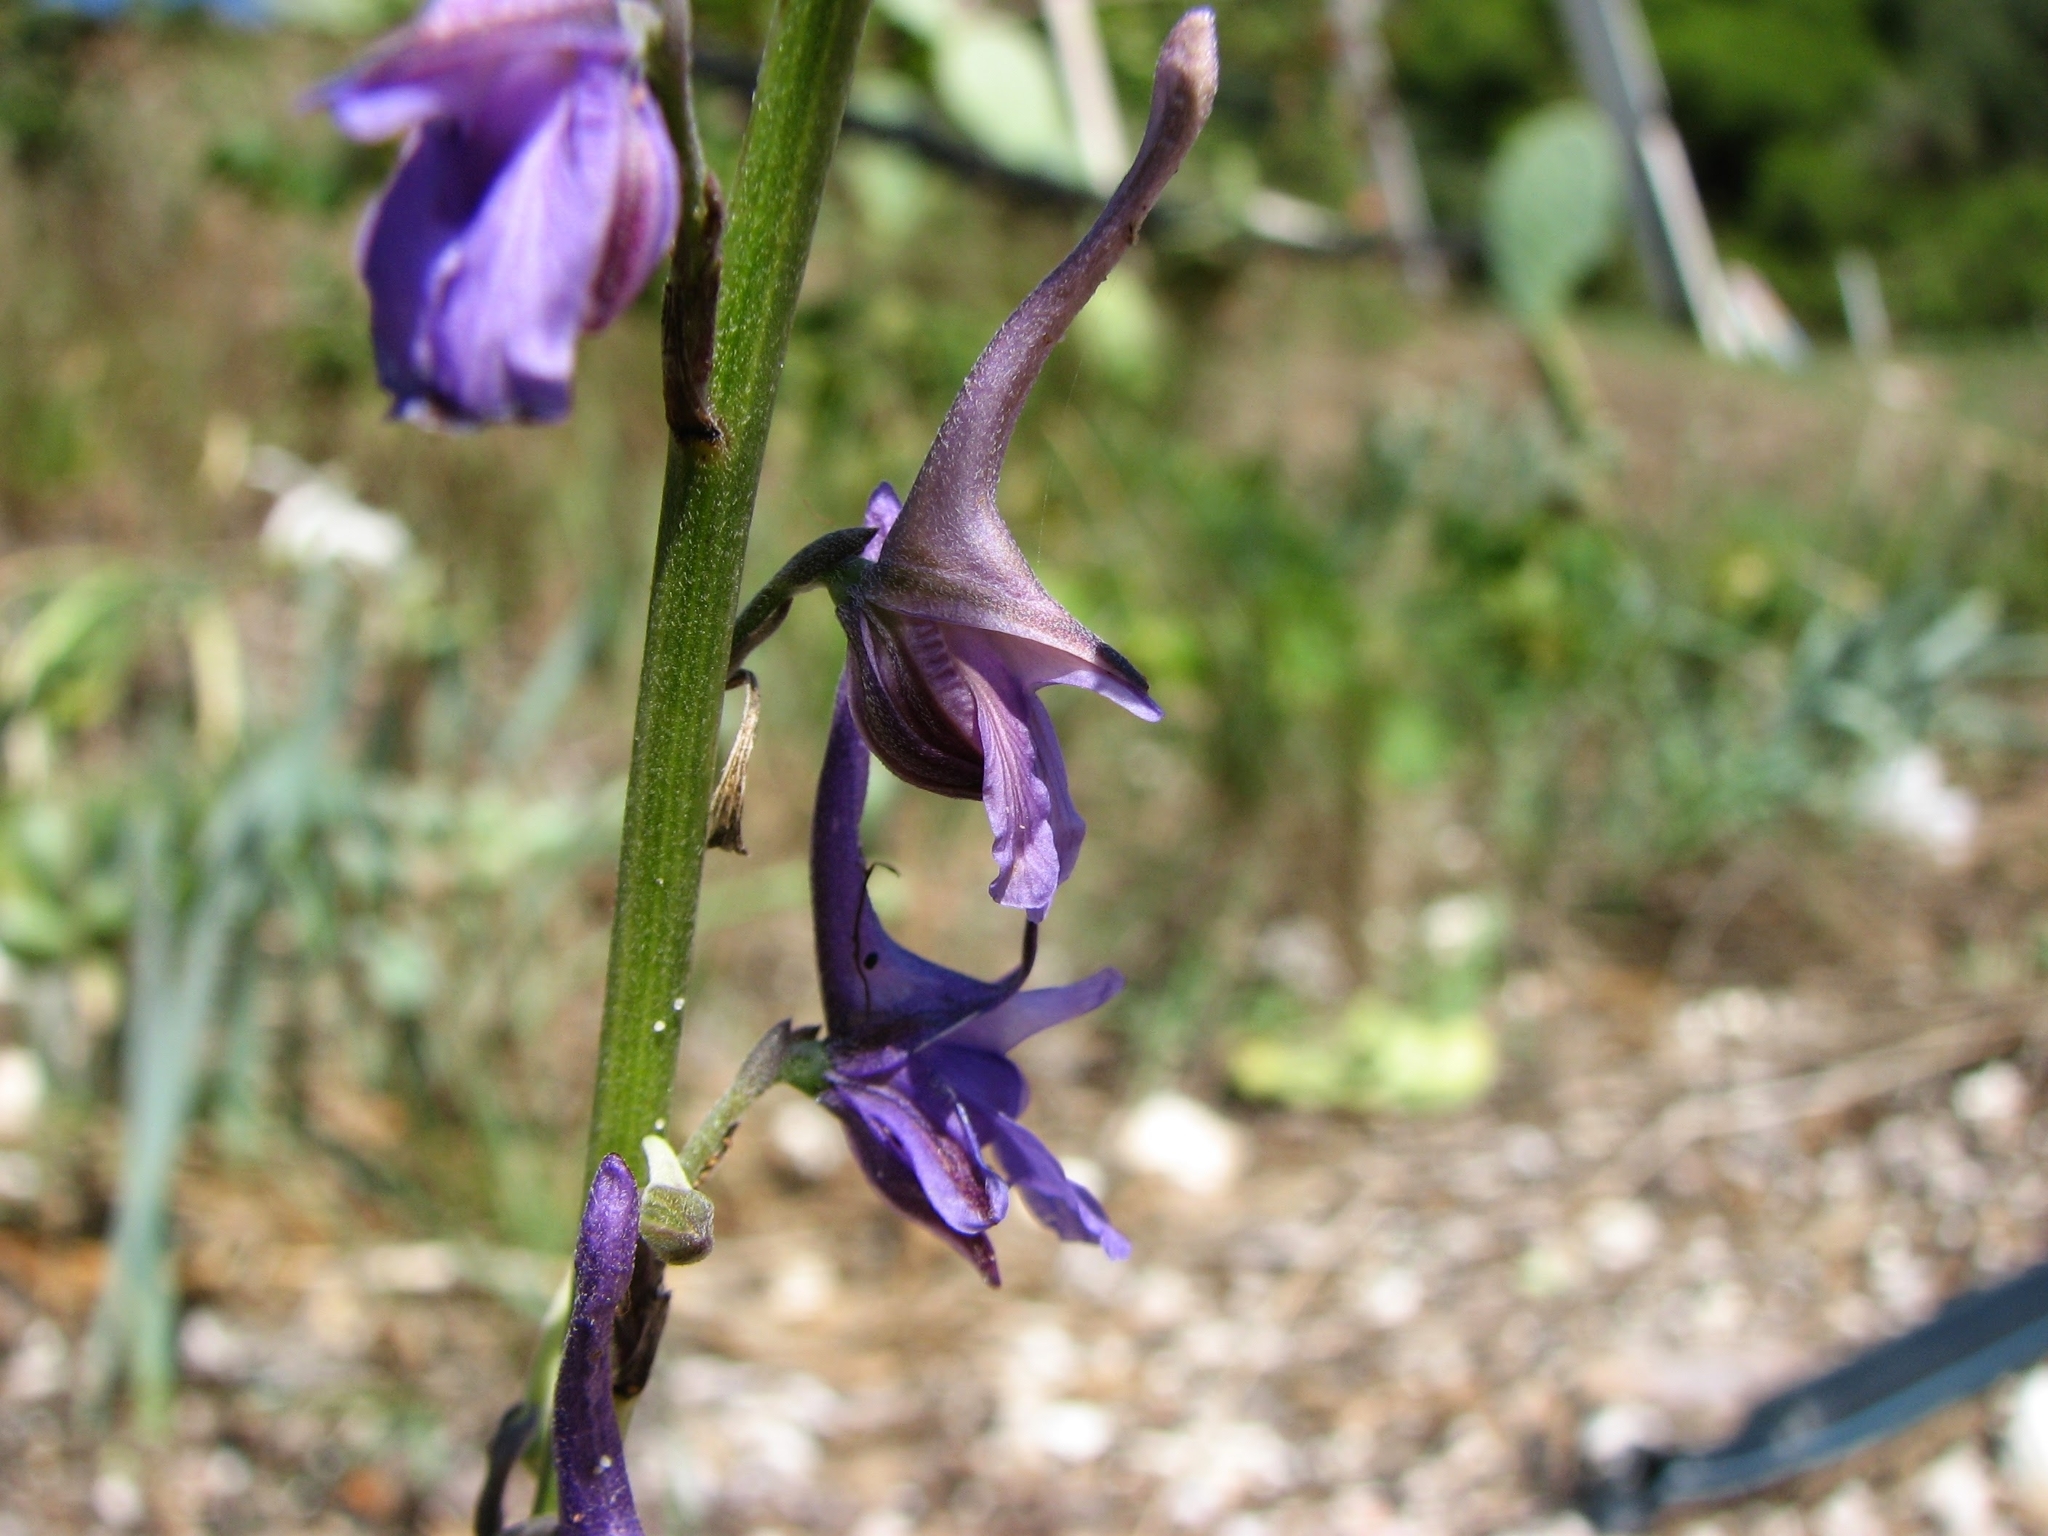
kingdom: Plantae
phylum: Tracheophyta
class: Magnoliopsida
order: Ranunculales
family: Ranunculaceae
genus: Delphinium
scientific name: Delphinium peregrinum
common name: Violet larkspur
